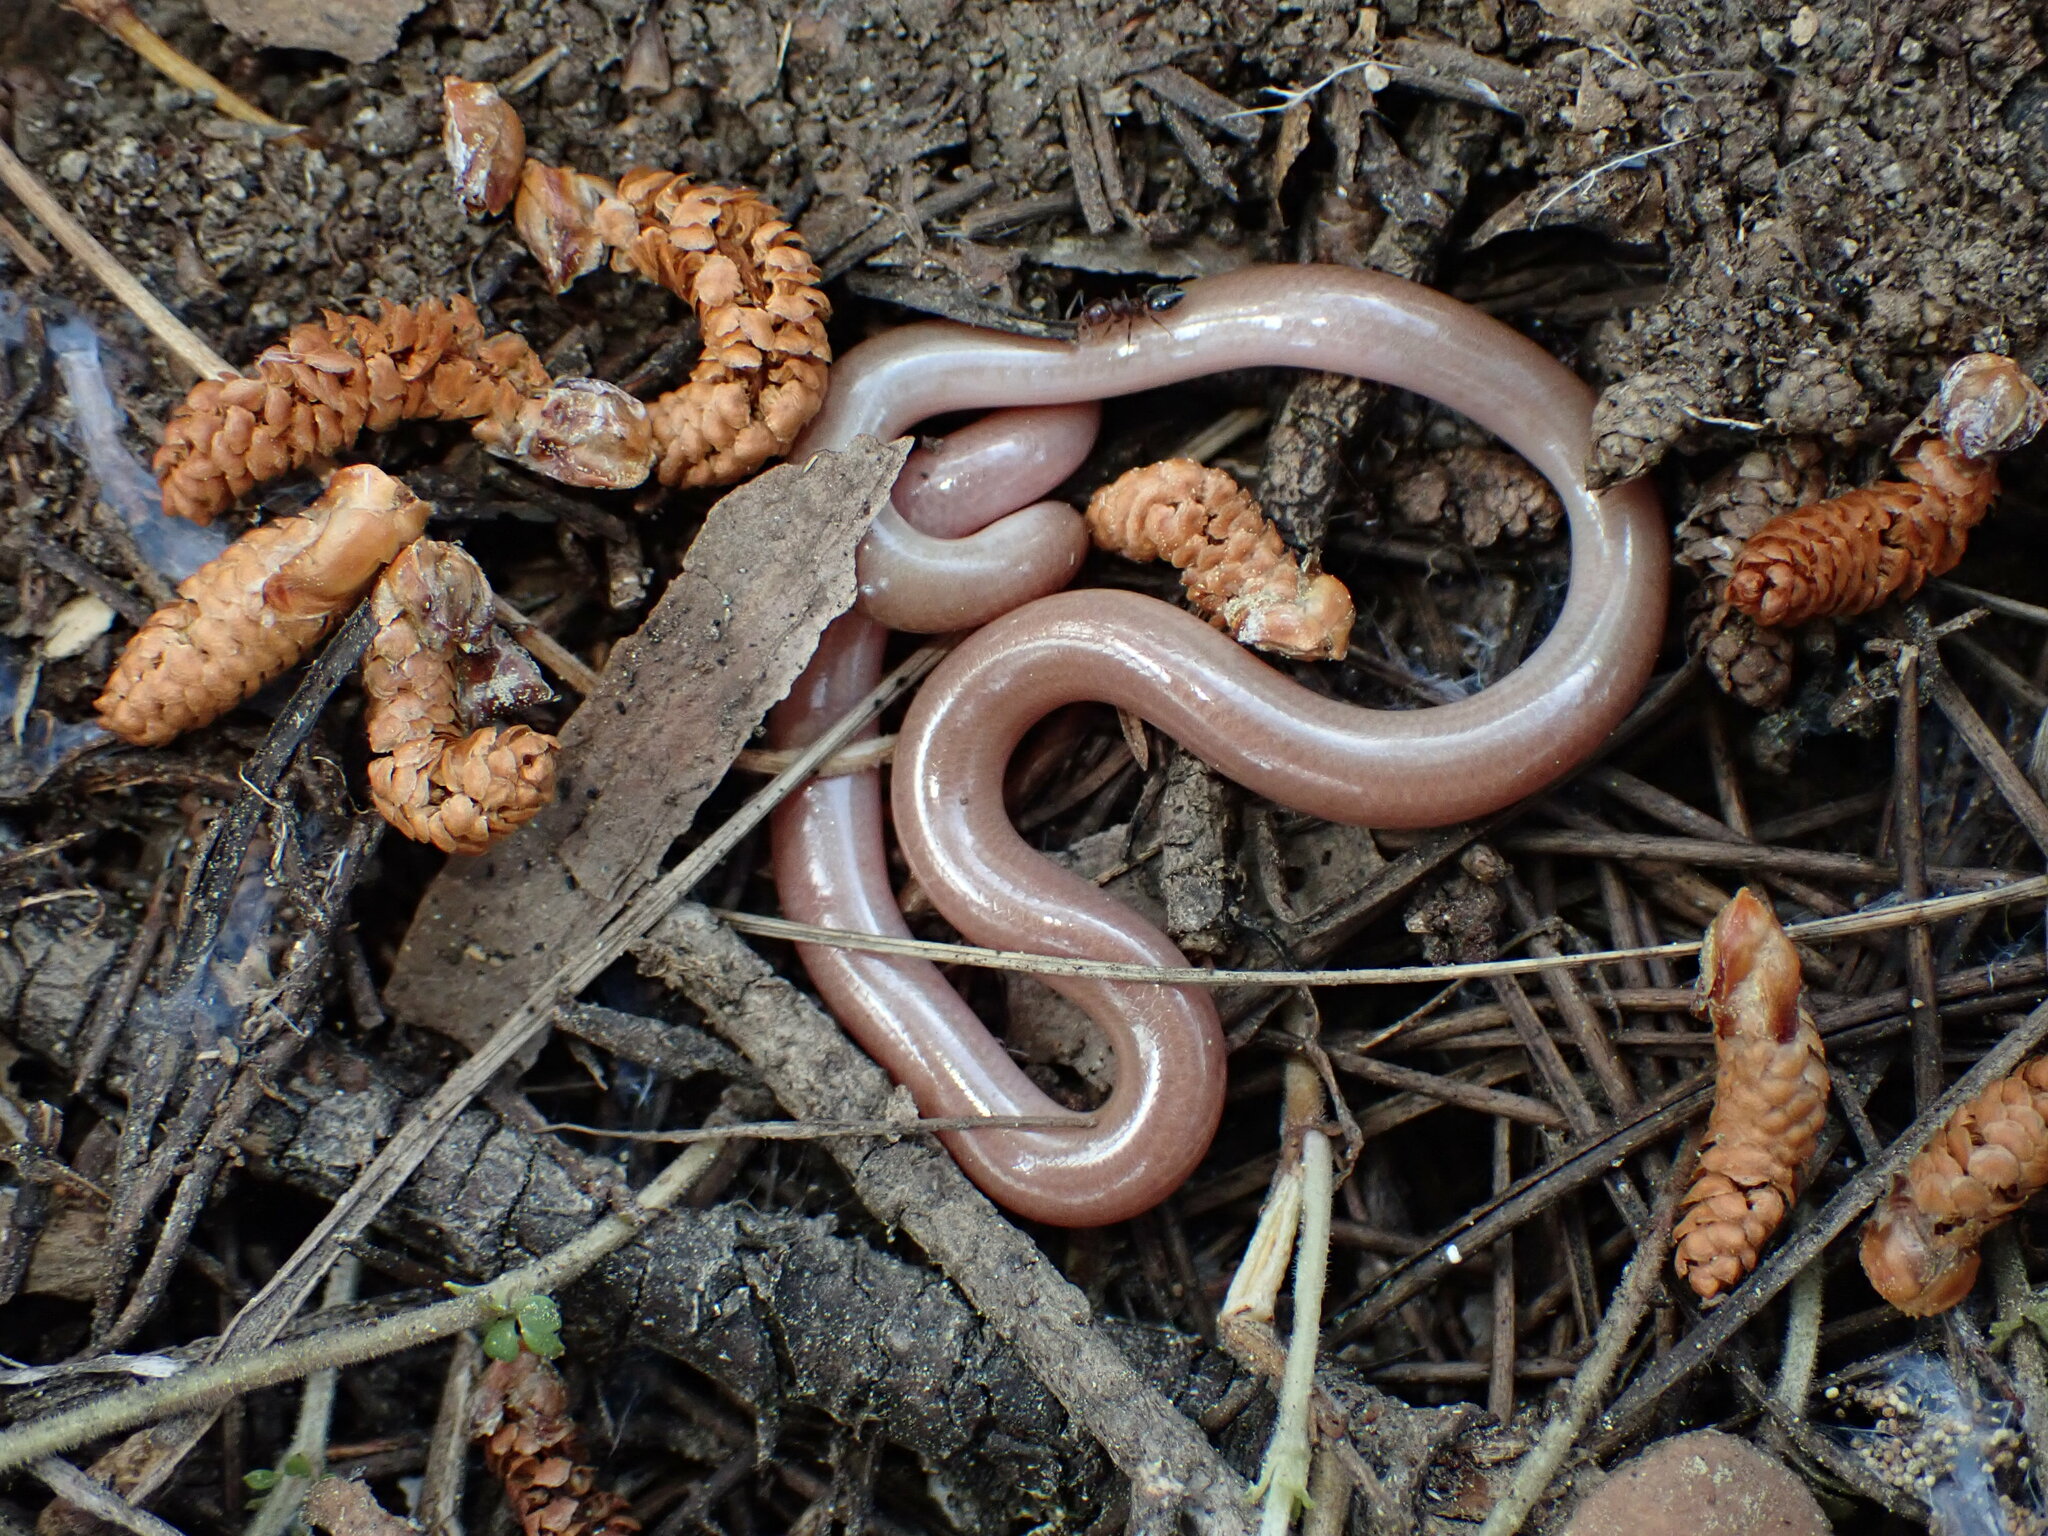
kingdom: Animalia
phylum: Chordata
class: Squamata
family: Typhlopidae
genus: Xerotyphlops
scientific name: Xerotyphlops vermicularis
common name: Eurasian blind snake
